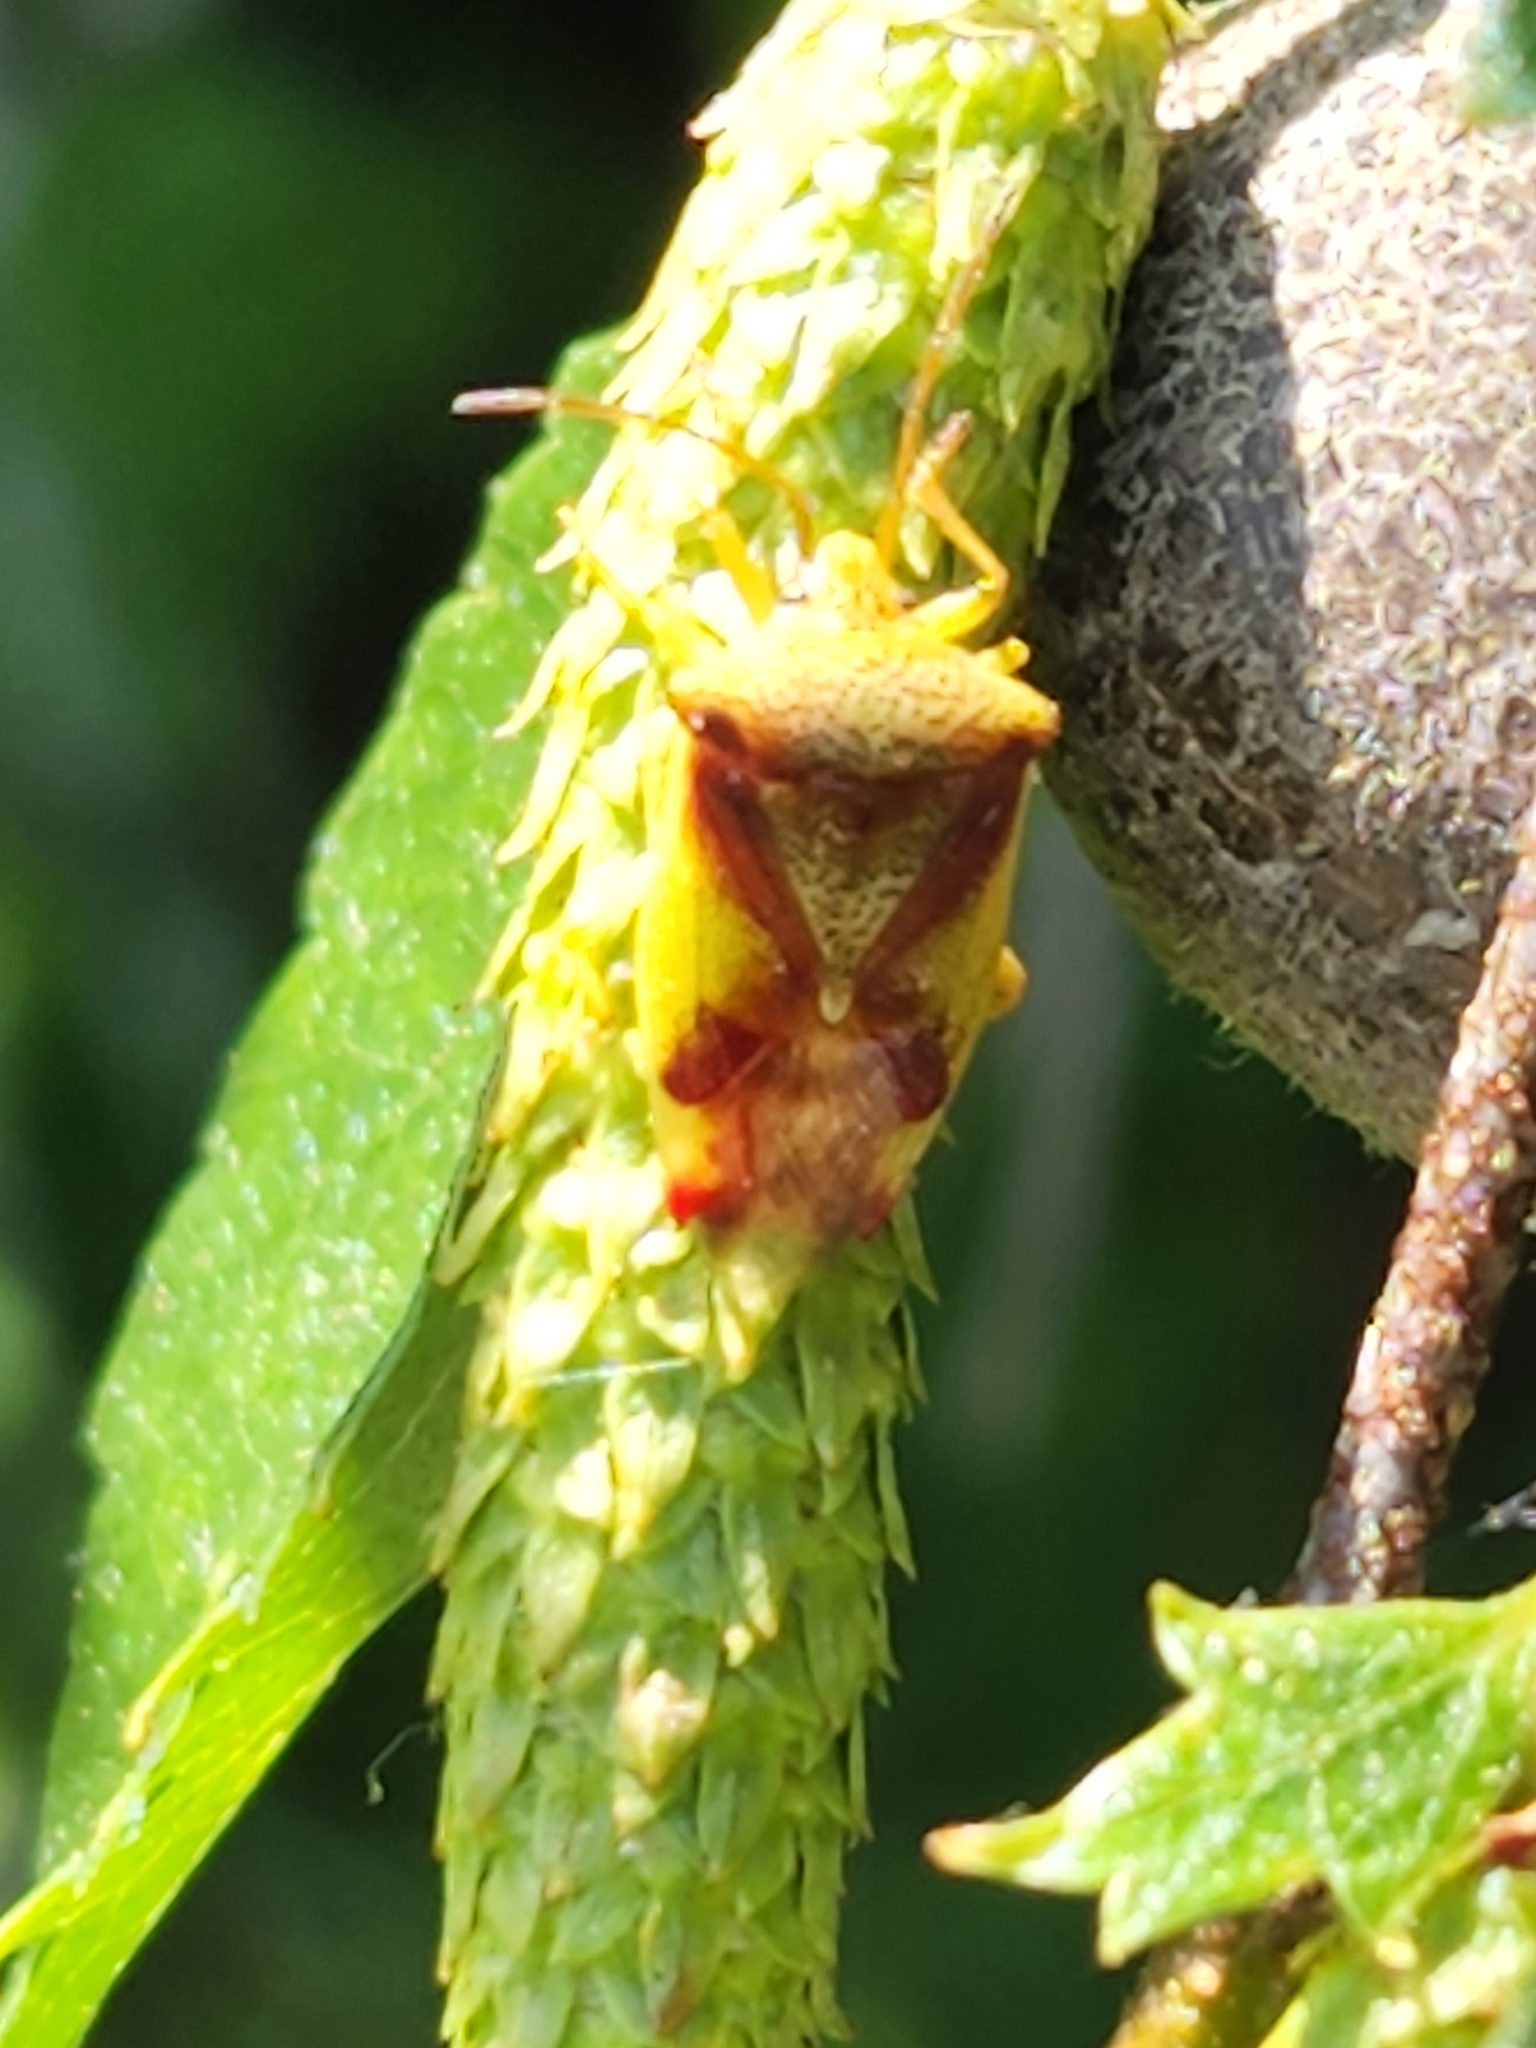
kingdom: Animalia
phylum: Arthropoda
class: Insecta
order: Hemiptera
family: Acanthosomatidae
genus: Elasmostethus
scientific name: Elasmostethus cruciatus
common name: Red-cross shield bug
